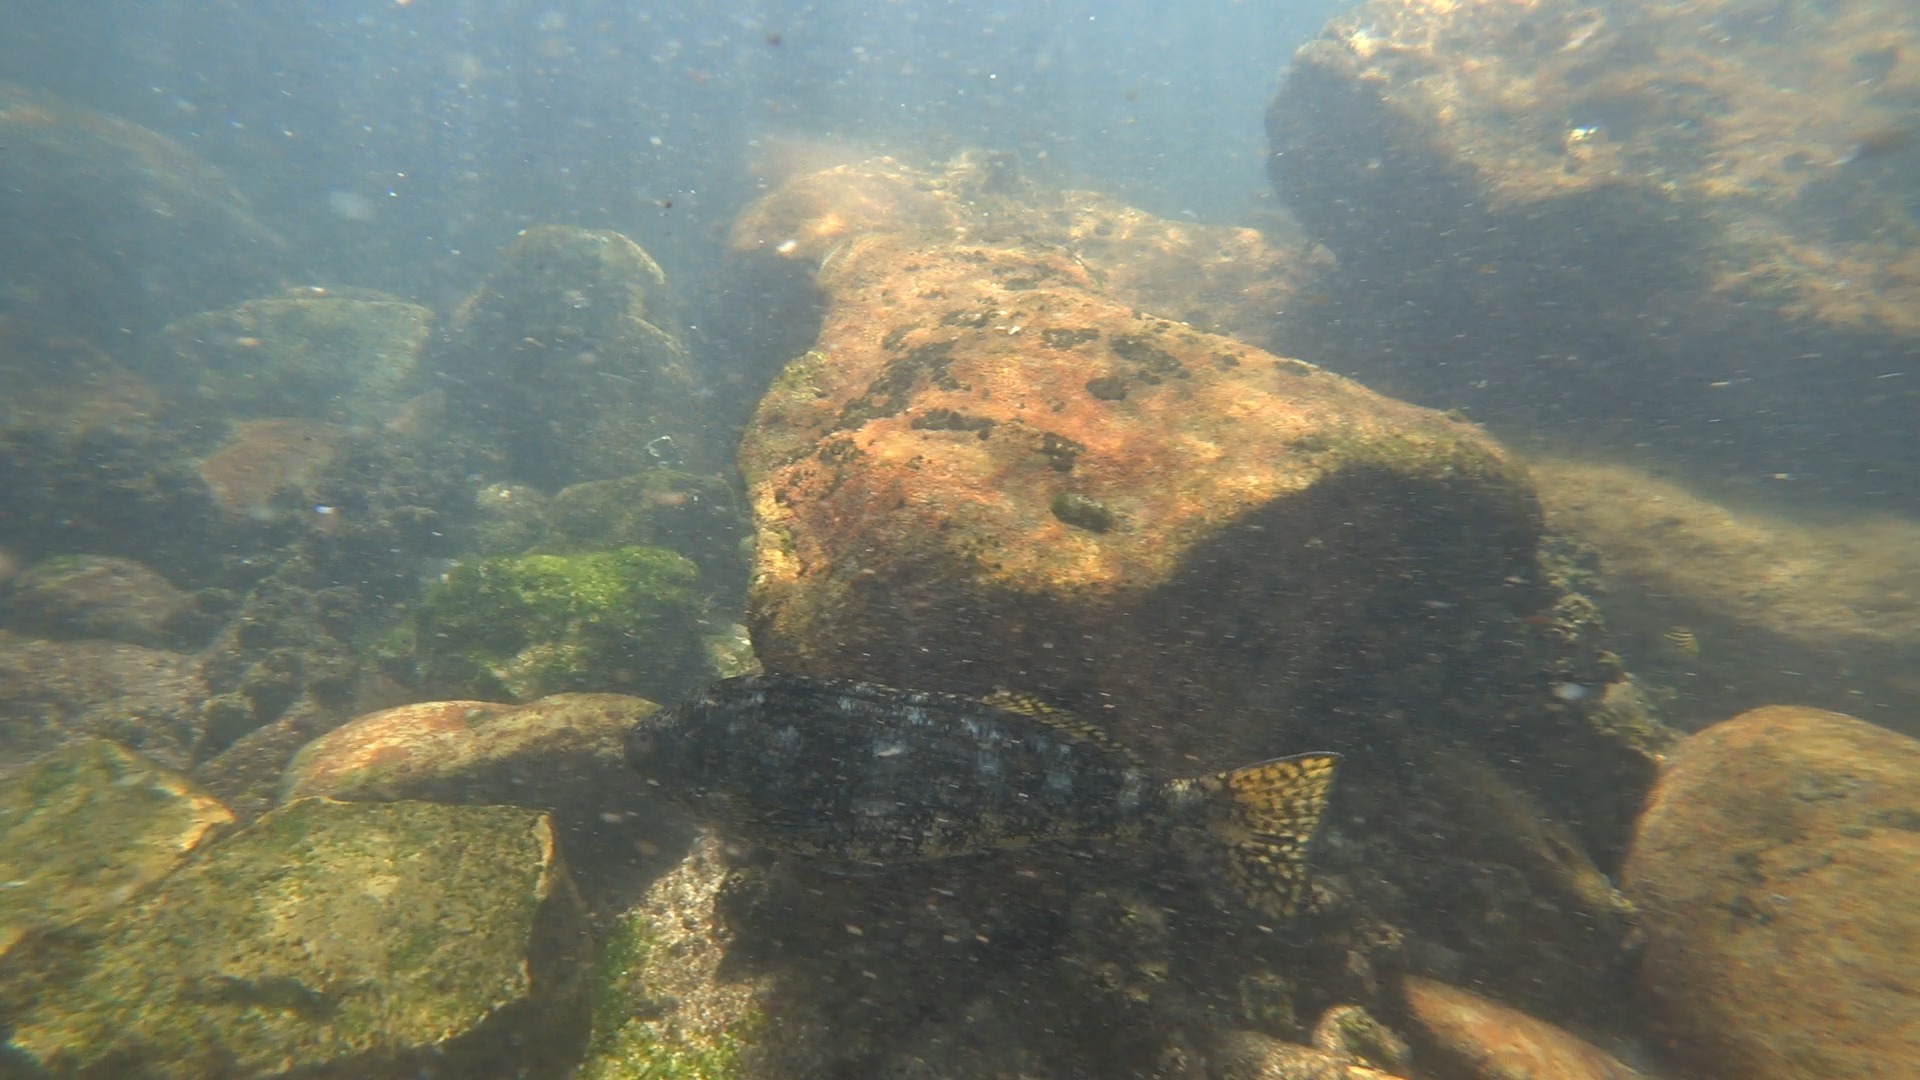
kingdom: Animalia
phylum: Chordata
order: Perciformes
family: Aplodactylidae
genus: Aplodactylus
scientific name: Aplodactylus lophodon
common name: Cockatoo fish
